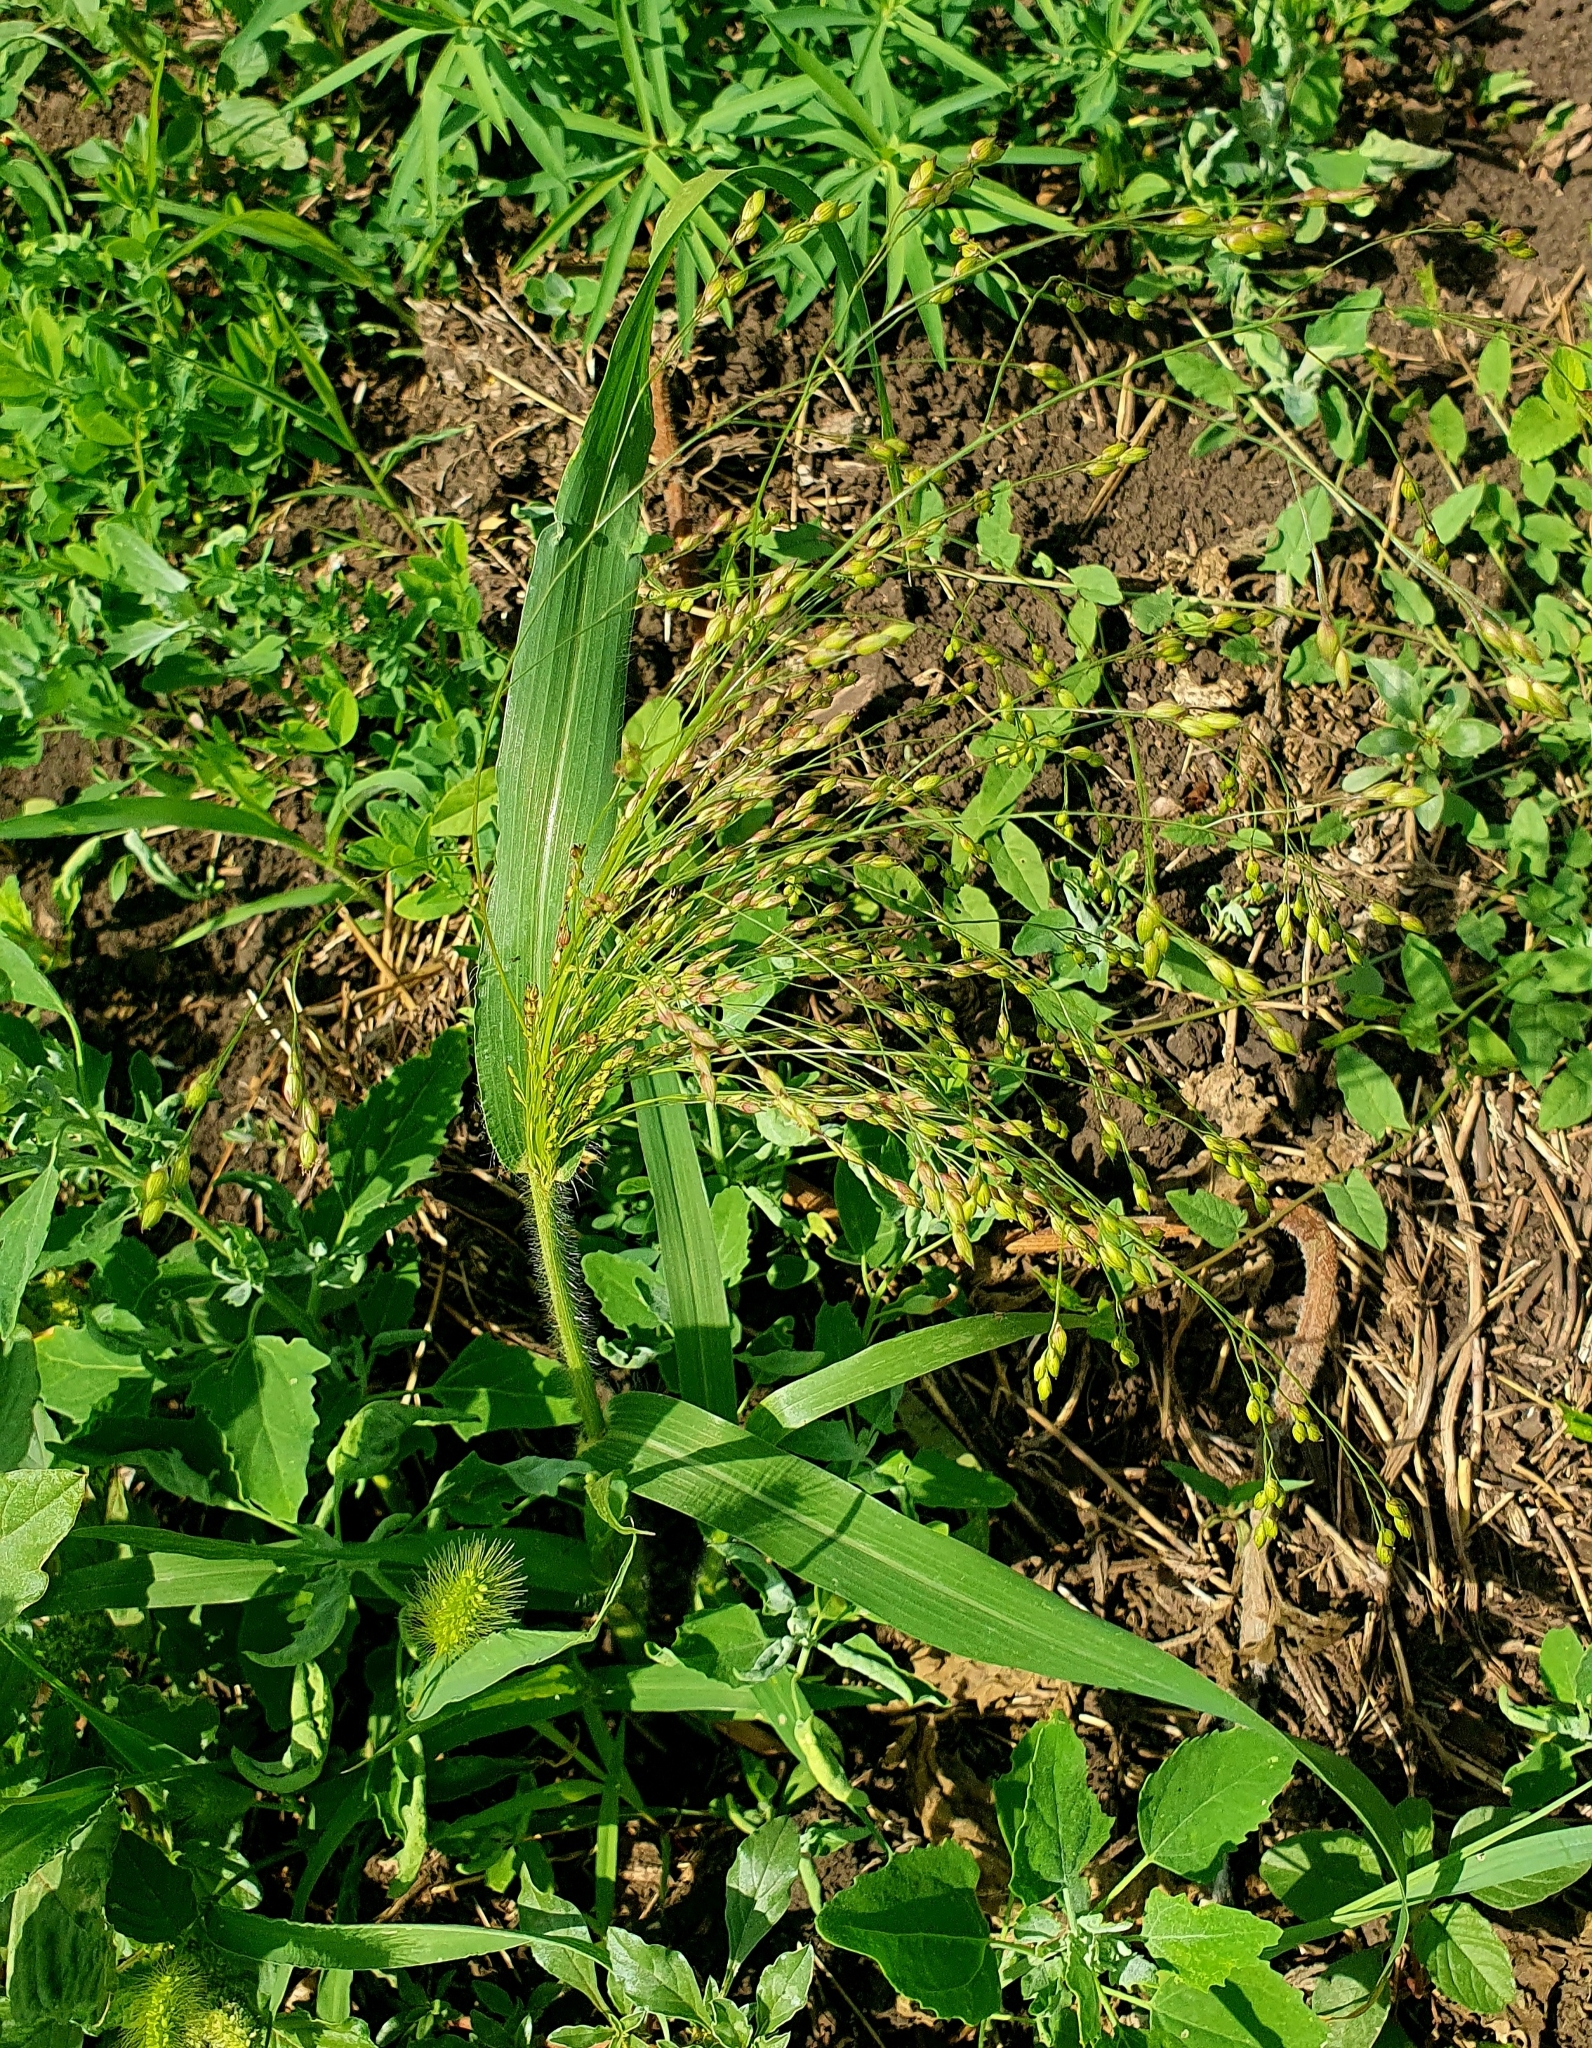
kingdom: Plantae
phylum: Tracheophyta
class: Liliopsida
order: Poales
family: Poaceae
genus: Panicum
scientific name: Panicum miliaceum
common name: Common millet
